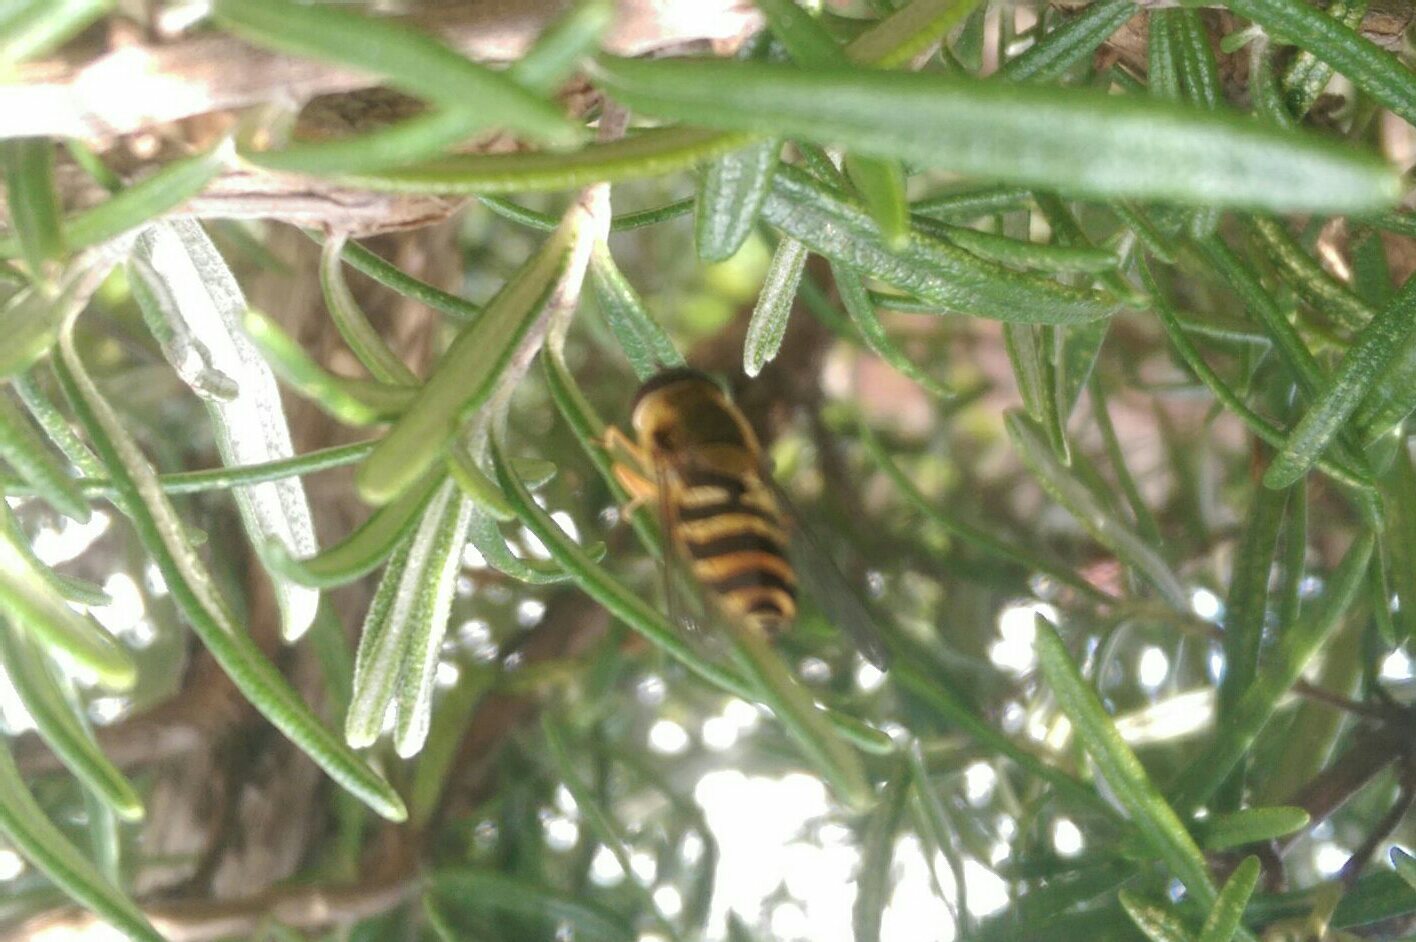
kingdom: Animalia
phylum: Arthropoda
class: Insecta
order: Diptera
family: Syrphidae
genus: Syrphus
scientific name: Syrphus
